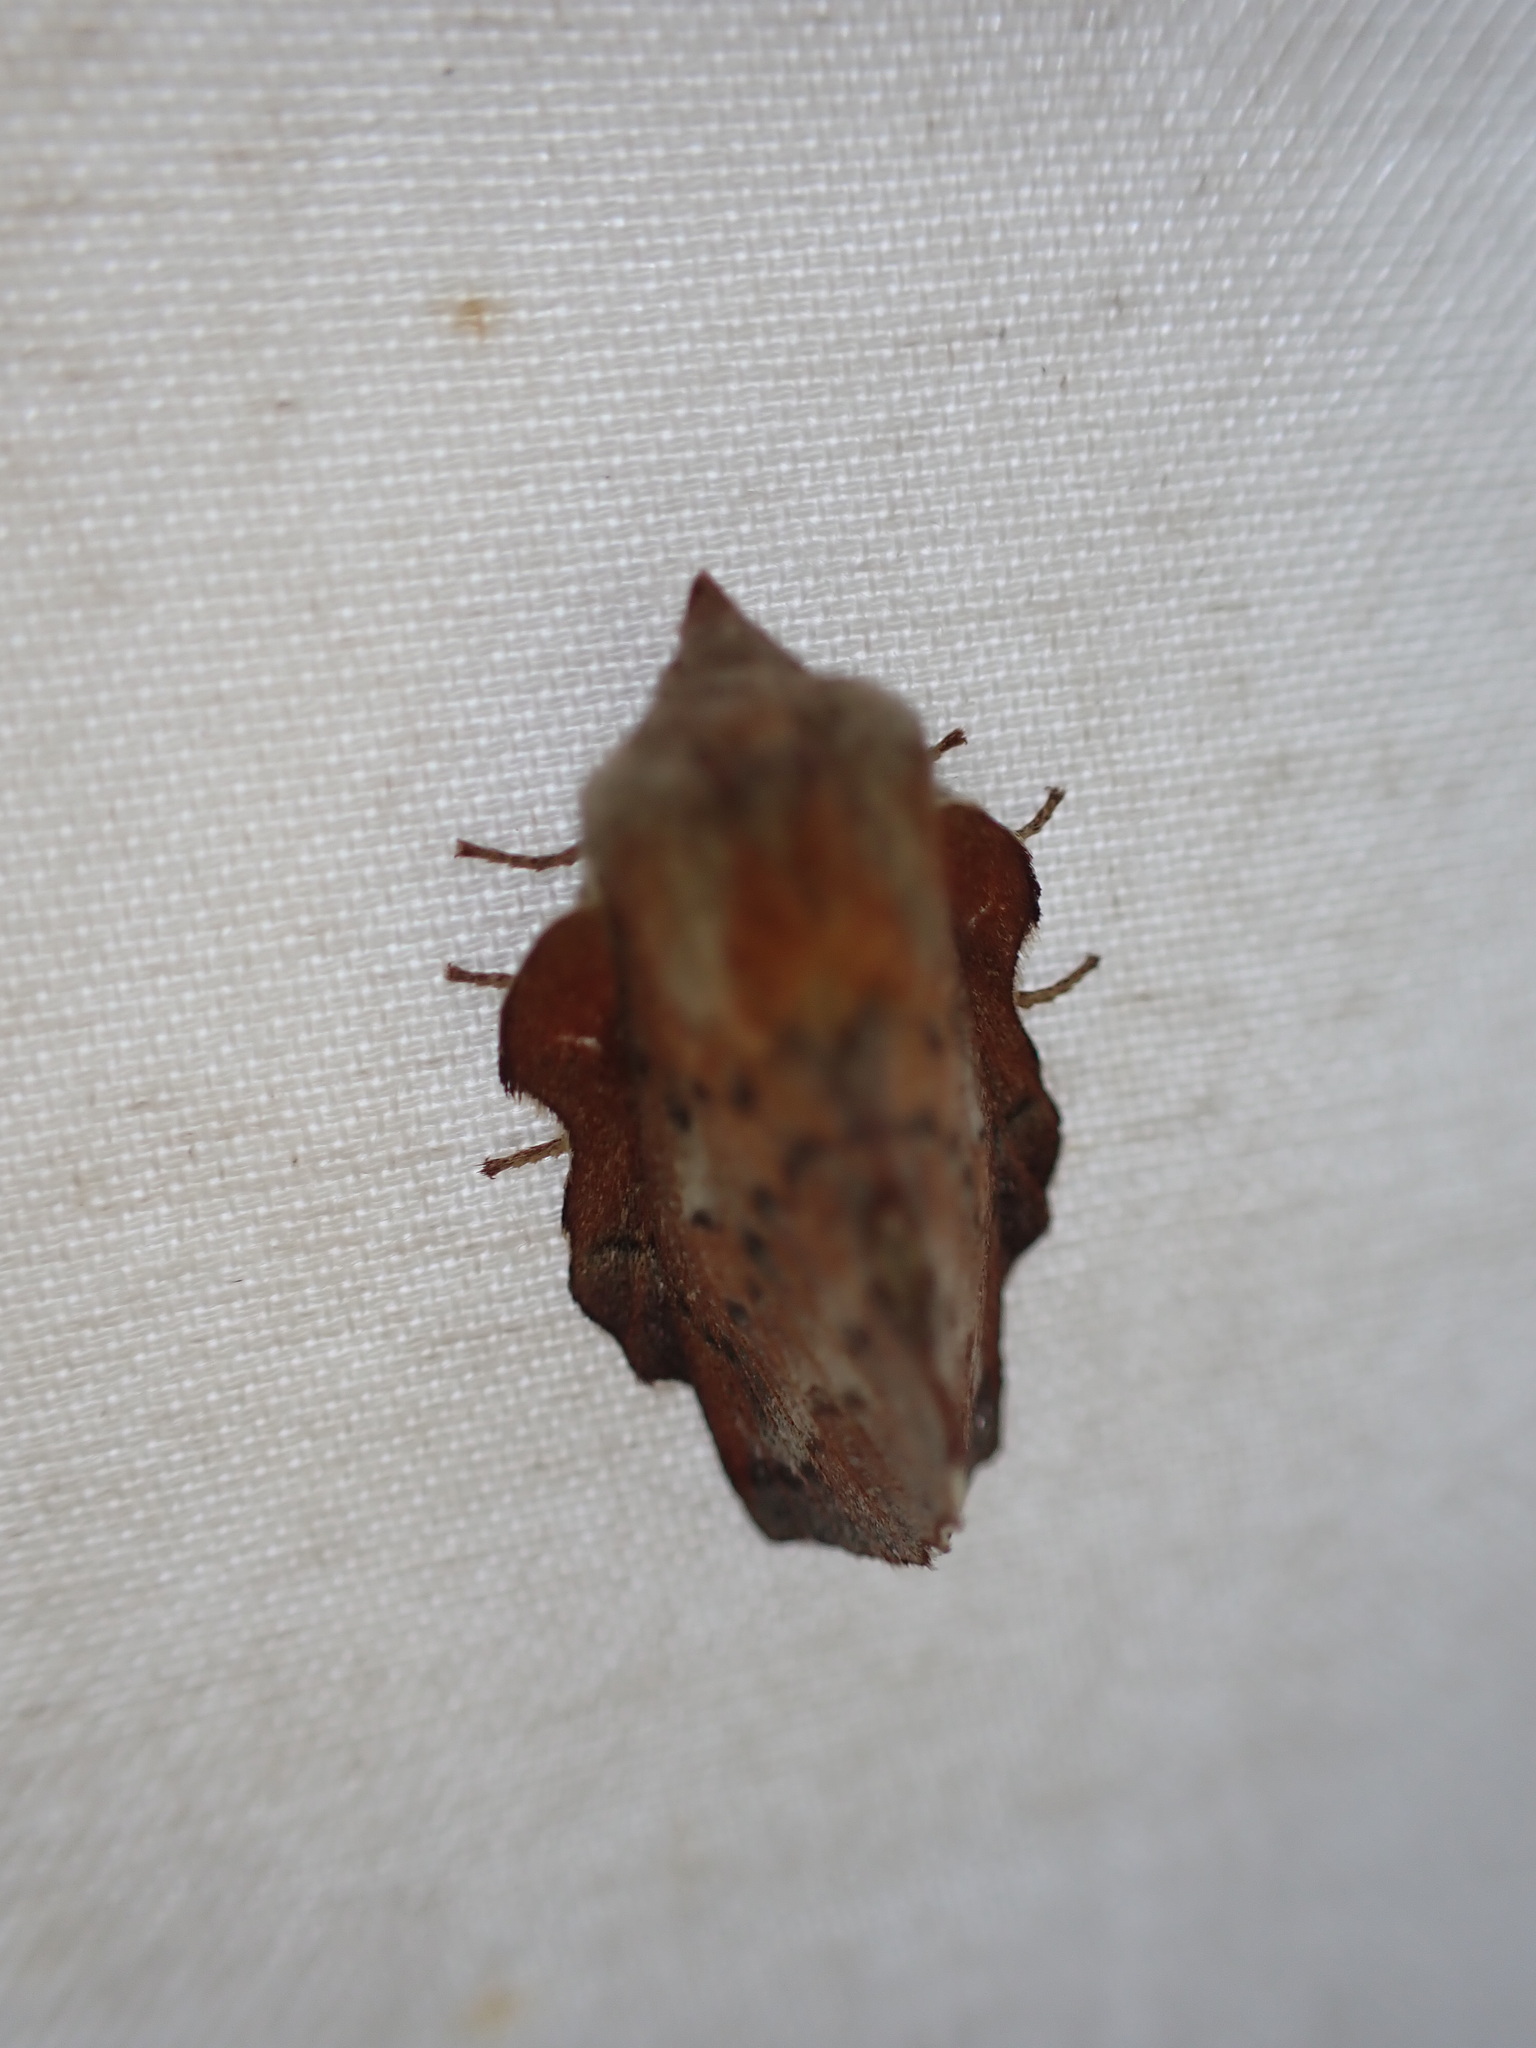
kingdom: Animalia
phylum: Arthropoda
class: Insecta
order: Lepidoptera
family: Lasiocampidae
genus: Phyllodesma
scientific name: Phyllodesma americana
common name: American lappet moth
